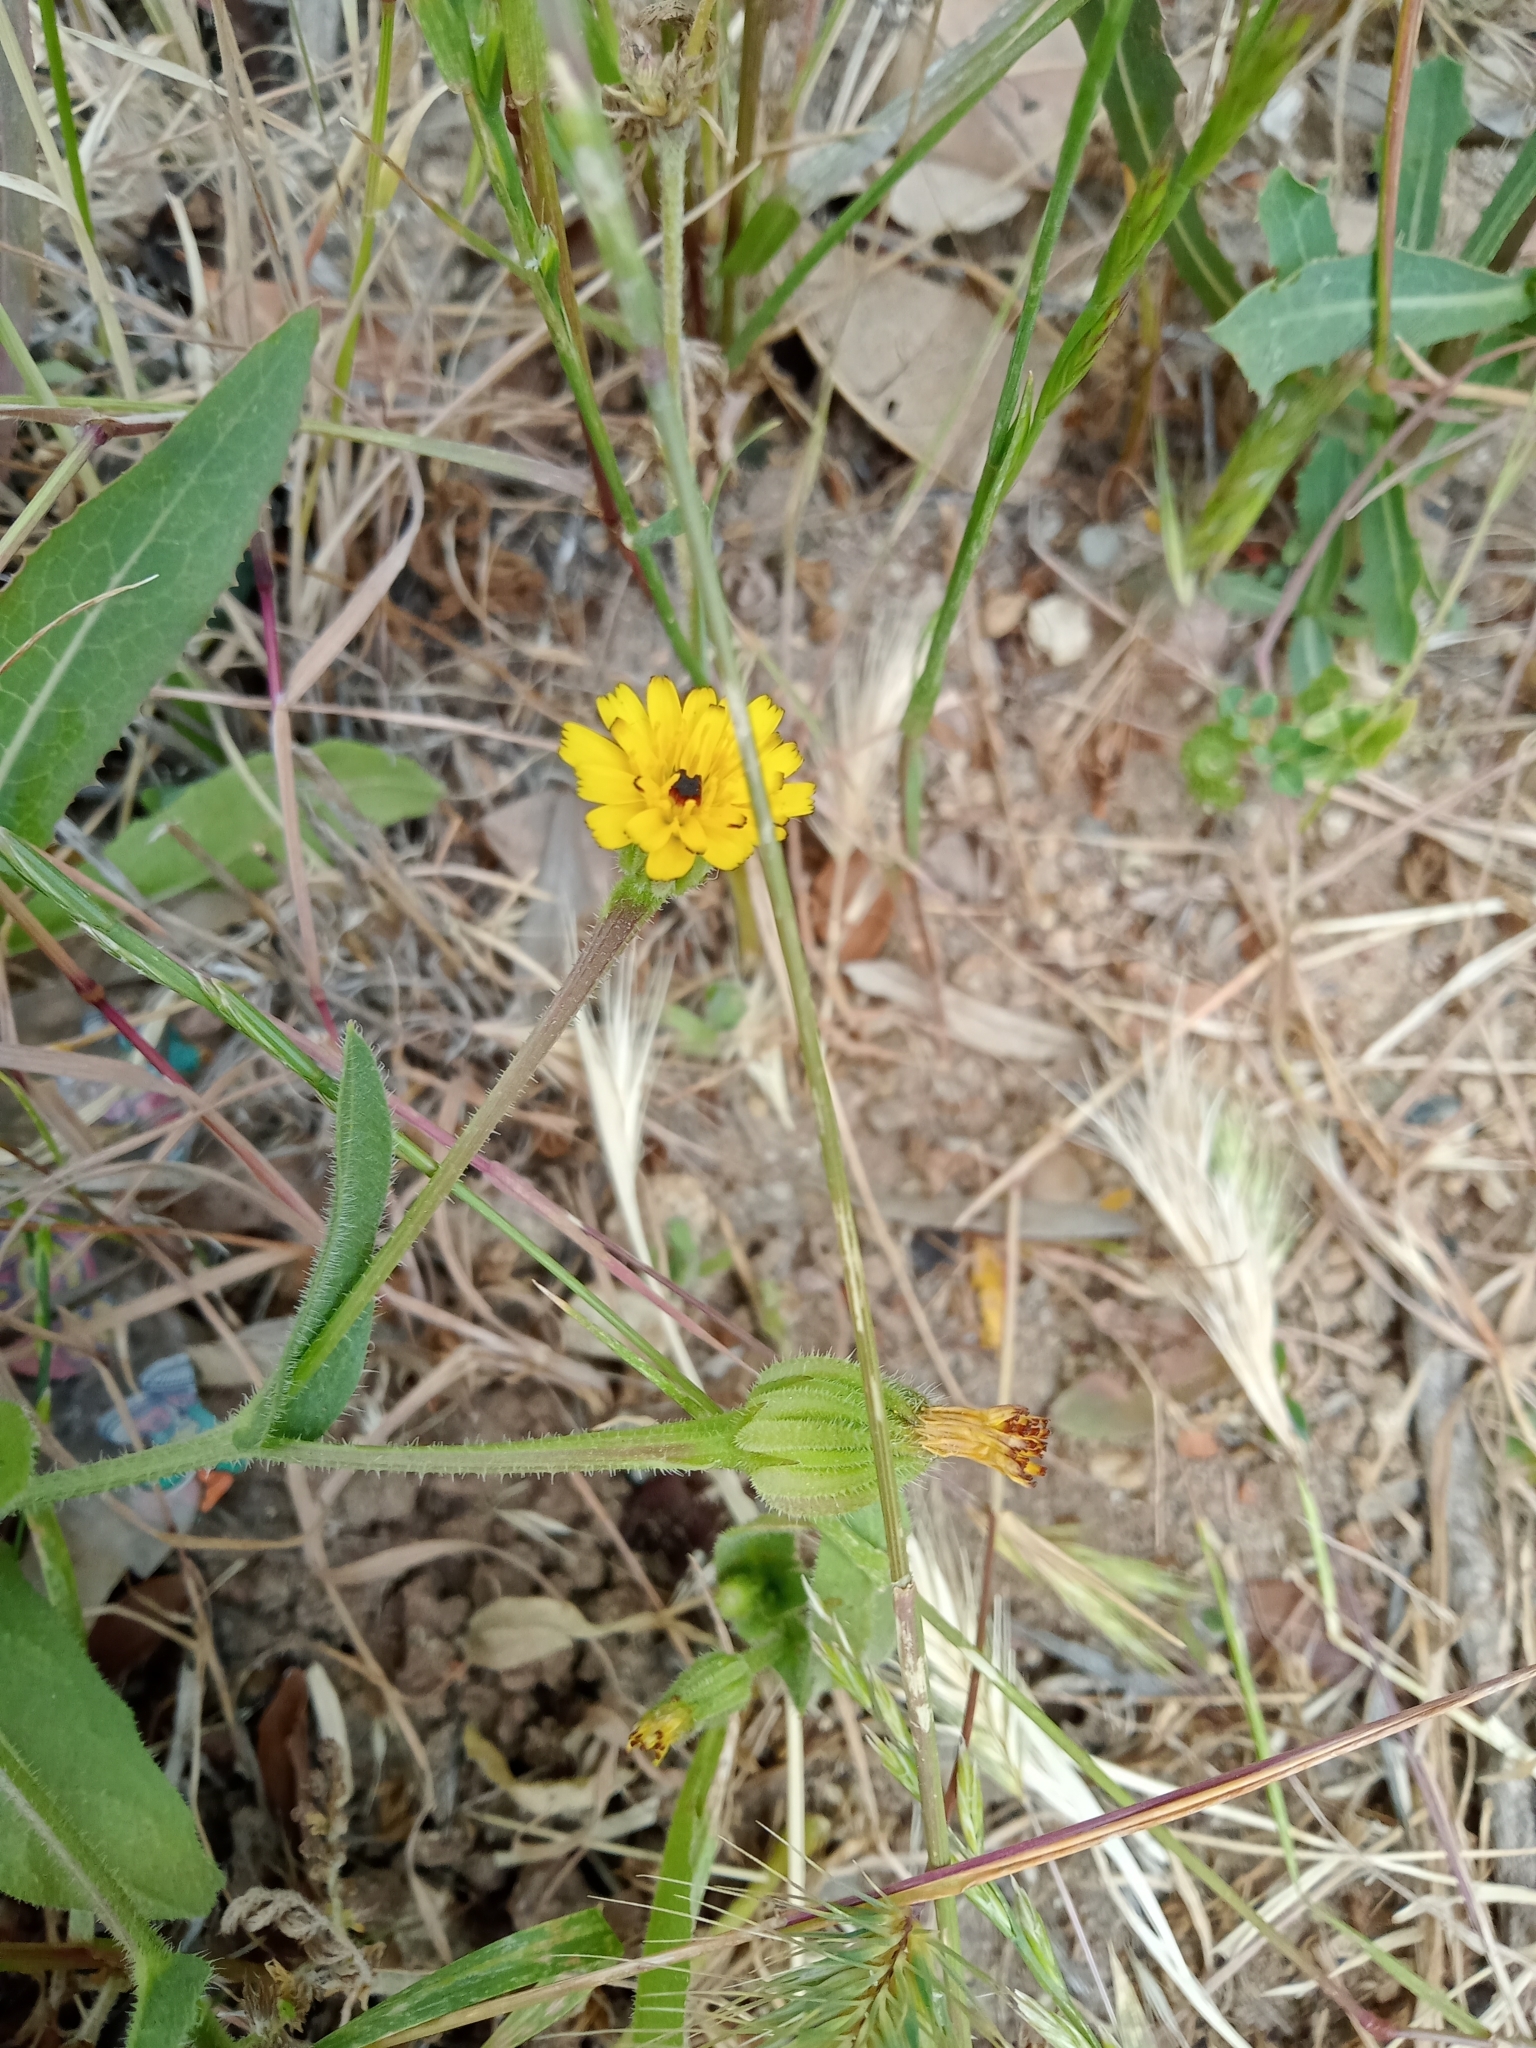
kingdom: Plantae
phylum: Tracheophyta
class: Magnoliopsida
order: Asterales
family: Asteraceae
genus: Hedypnois
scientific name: Hedypnois rhagadioloides
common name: Cretan weed
